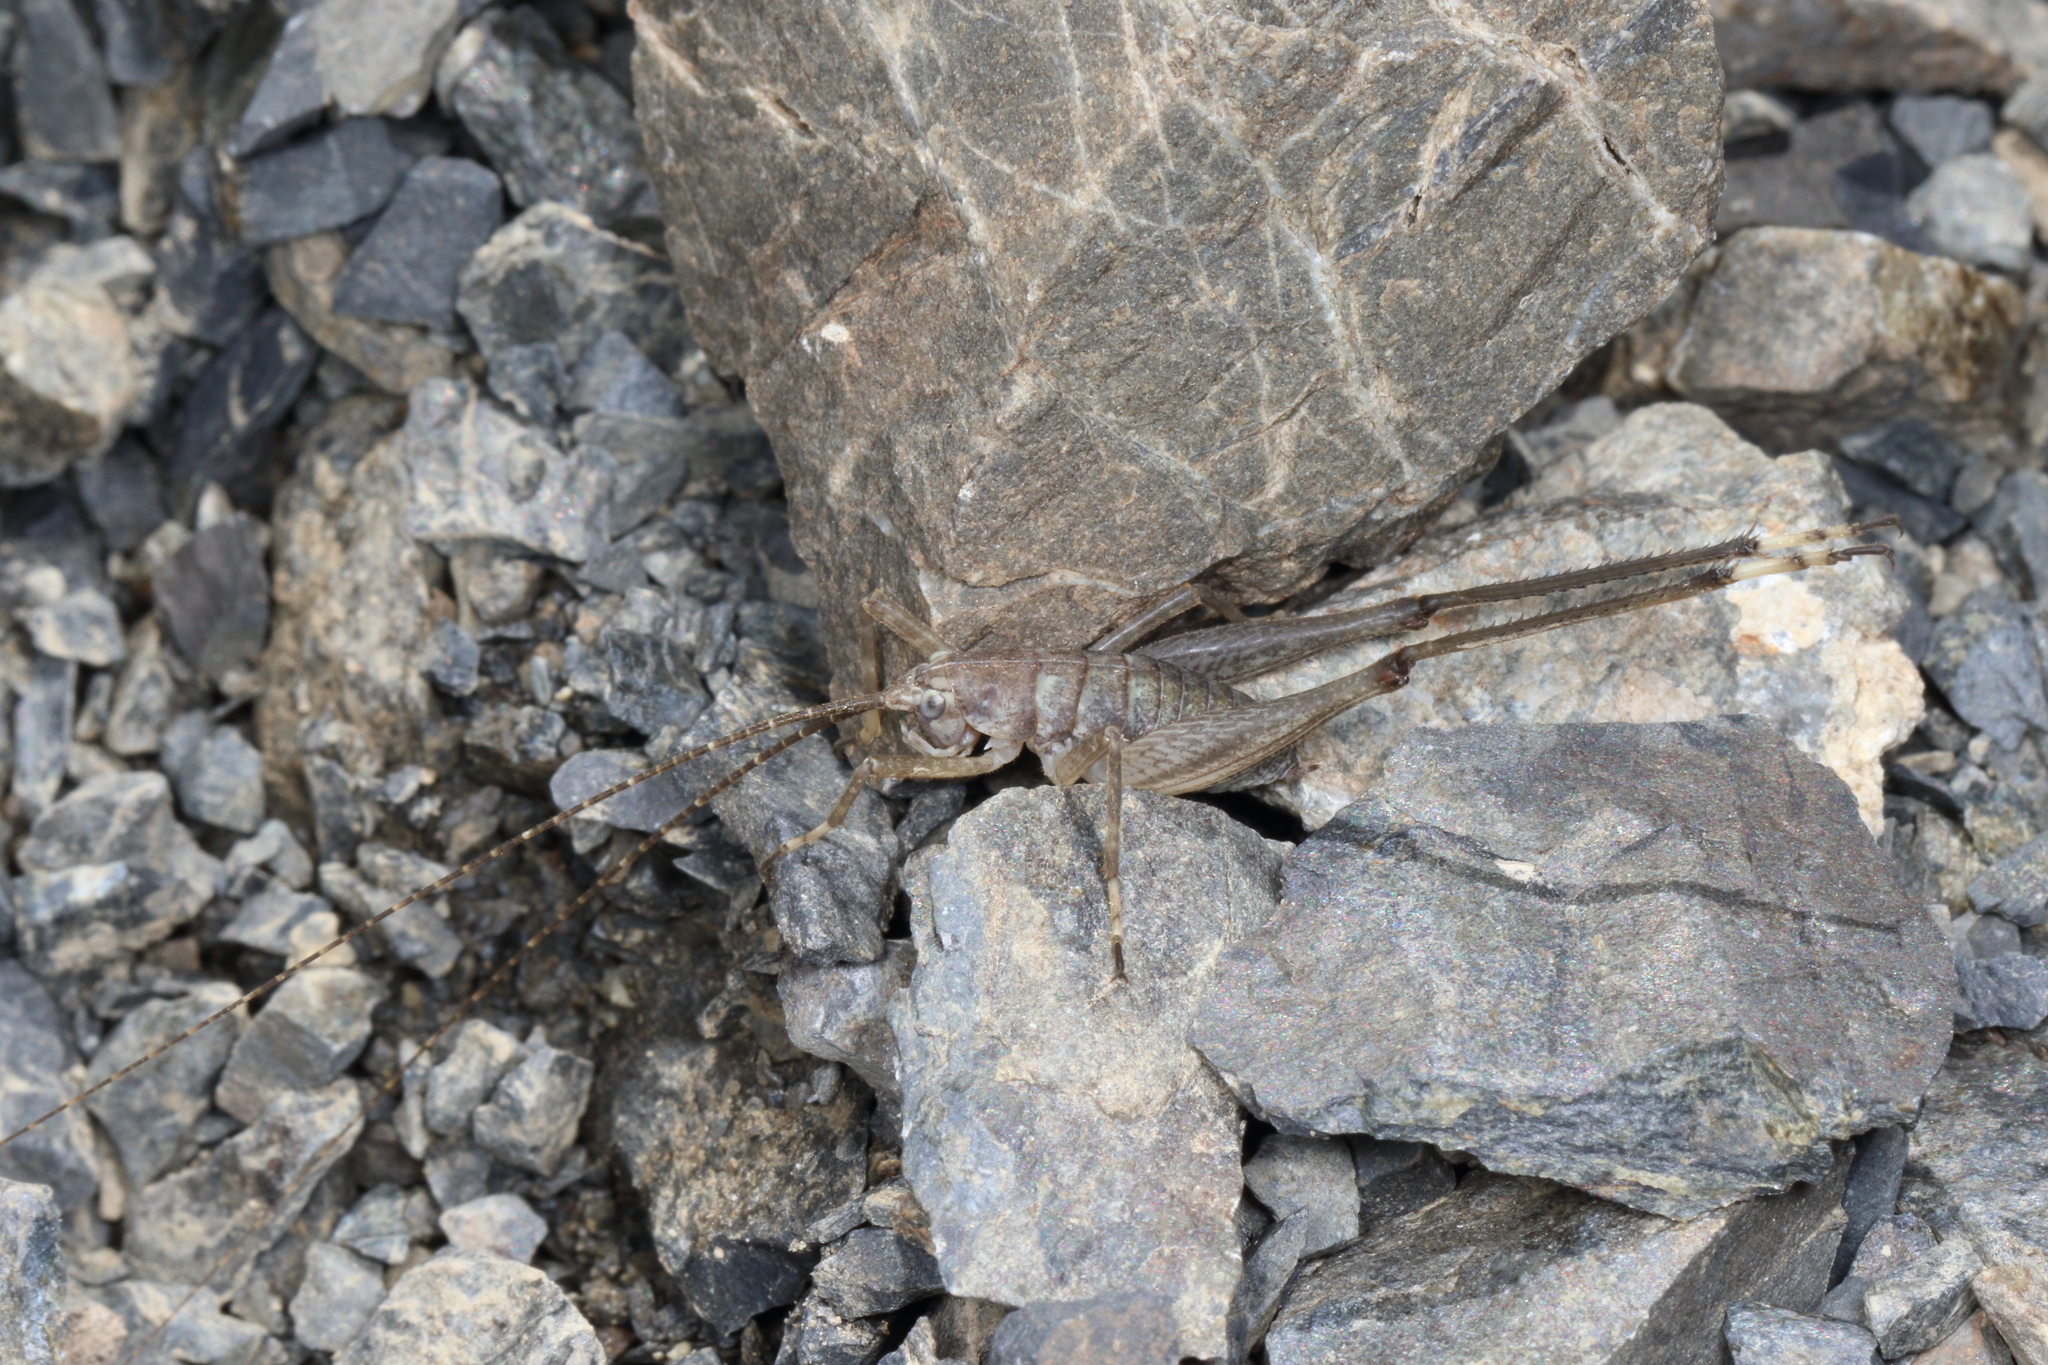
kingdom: Animalia
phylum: Arthropoda
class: Insecta
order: Orthoptera
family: Rhaphidophoridae
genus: Petrotettix
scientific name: Petrotettix serratus
